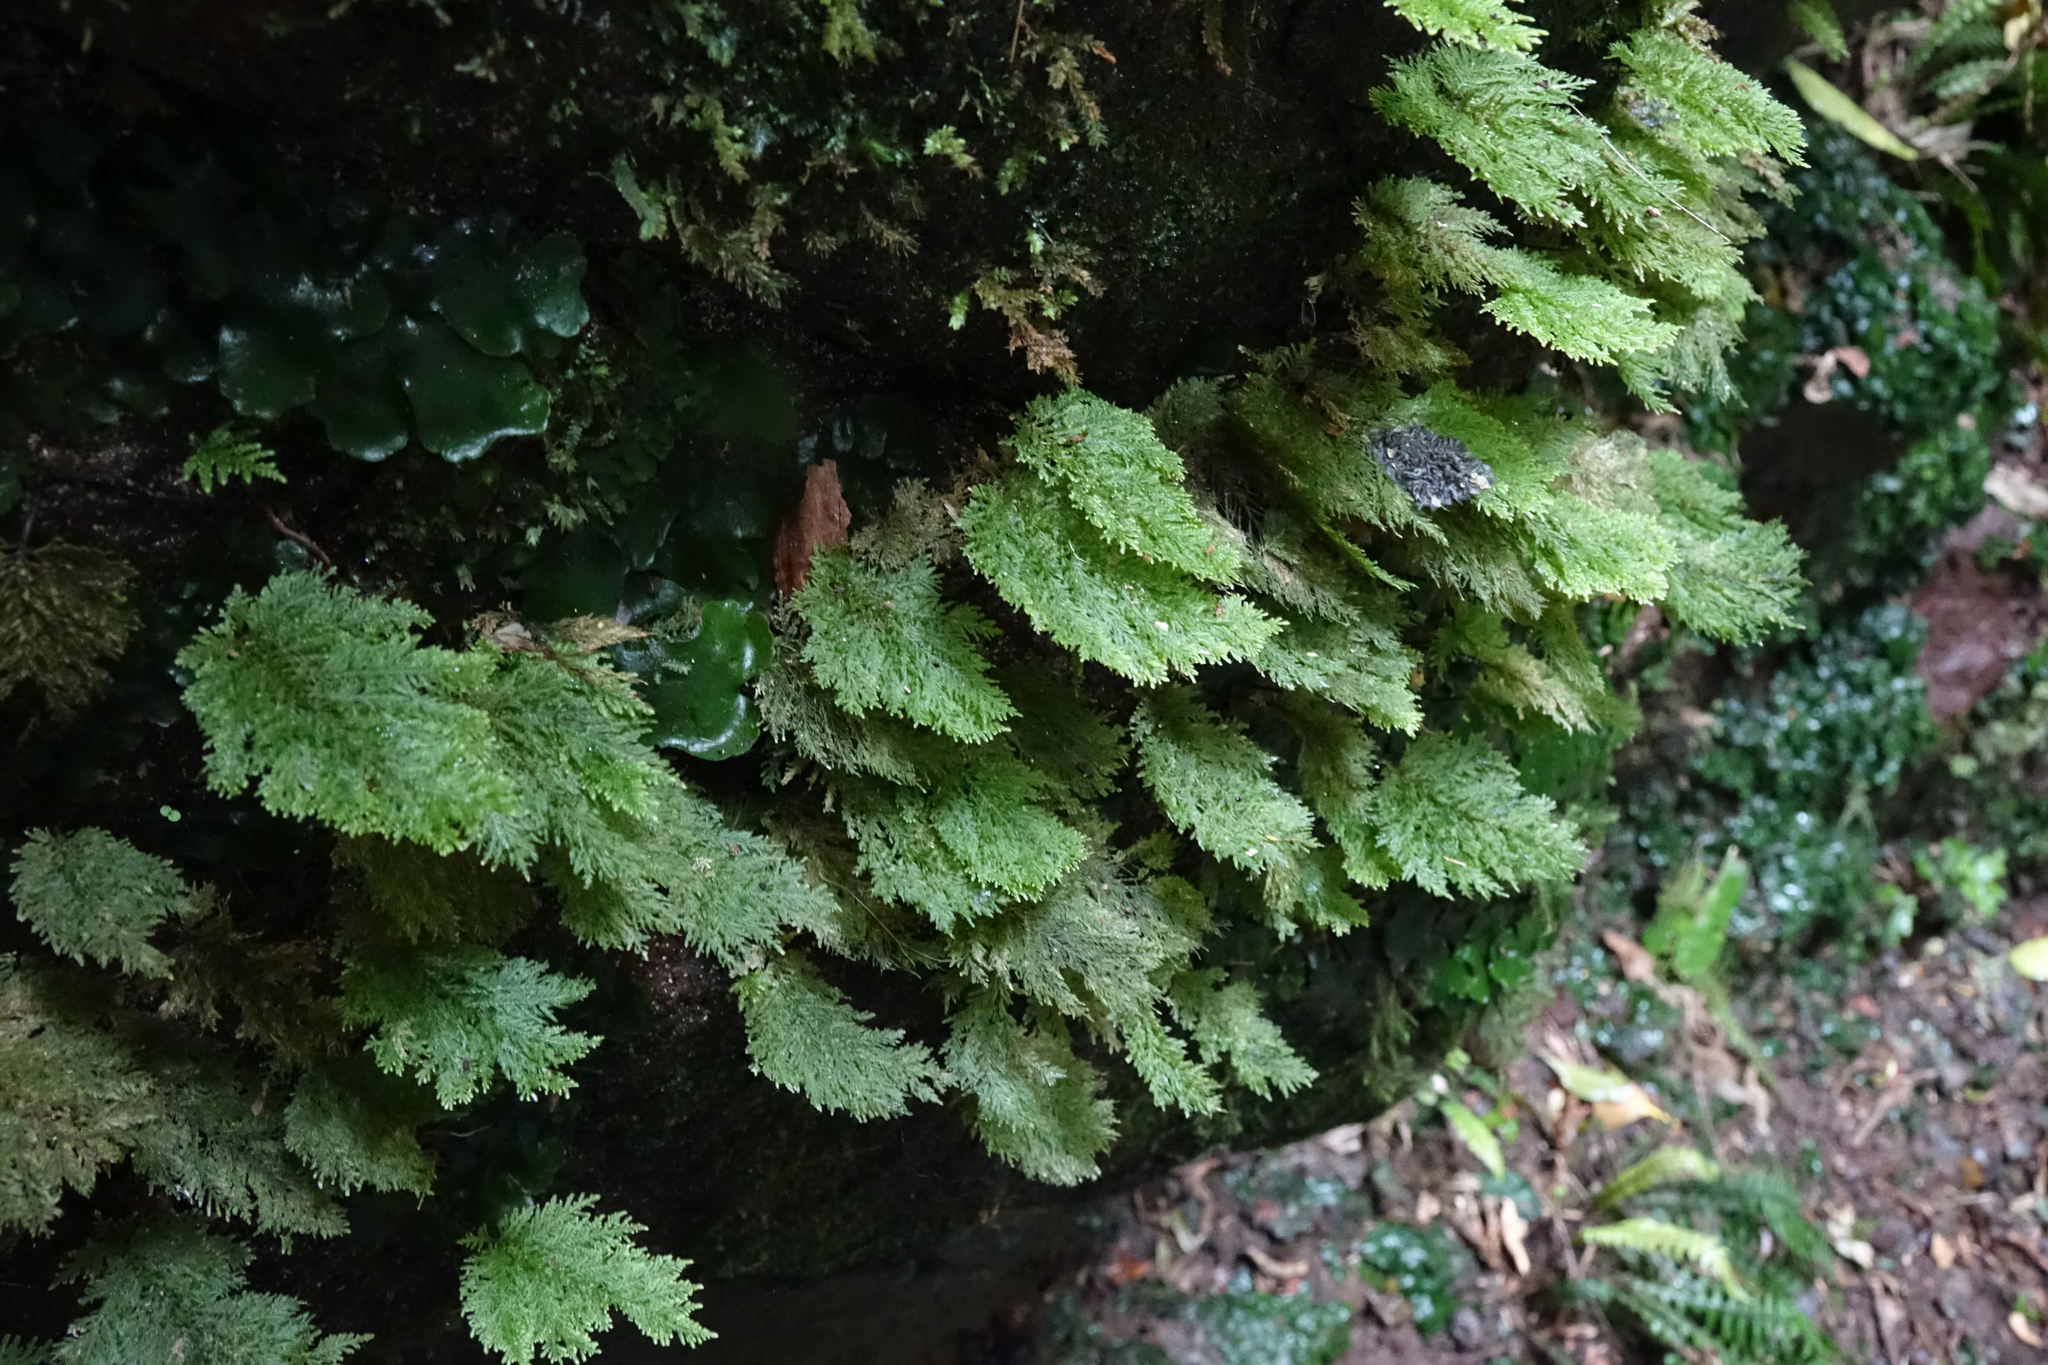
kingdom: Plantae
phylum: Bryophyta
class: Bryopsida
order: Hypopterygiales
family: Hypopterygiaceae
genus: Dendrohypopterygium
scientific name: Dendrohypopterygium filiculiforme
